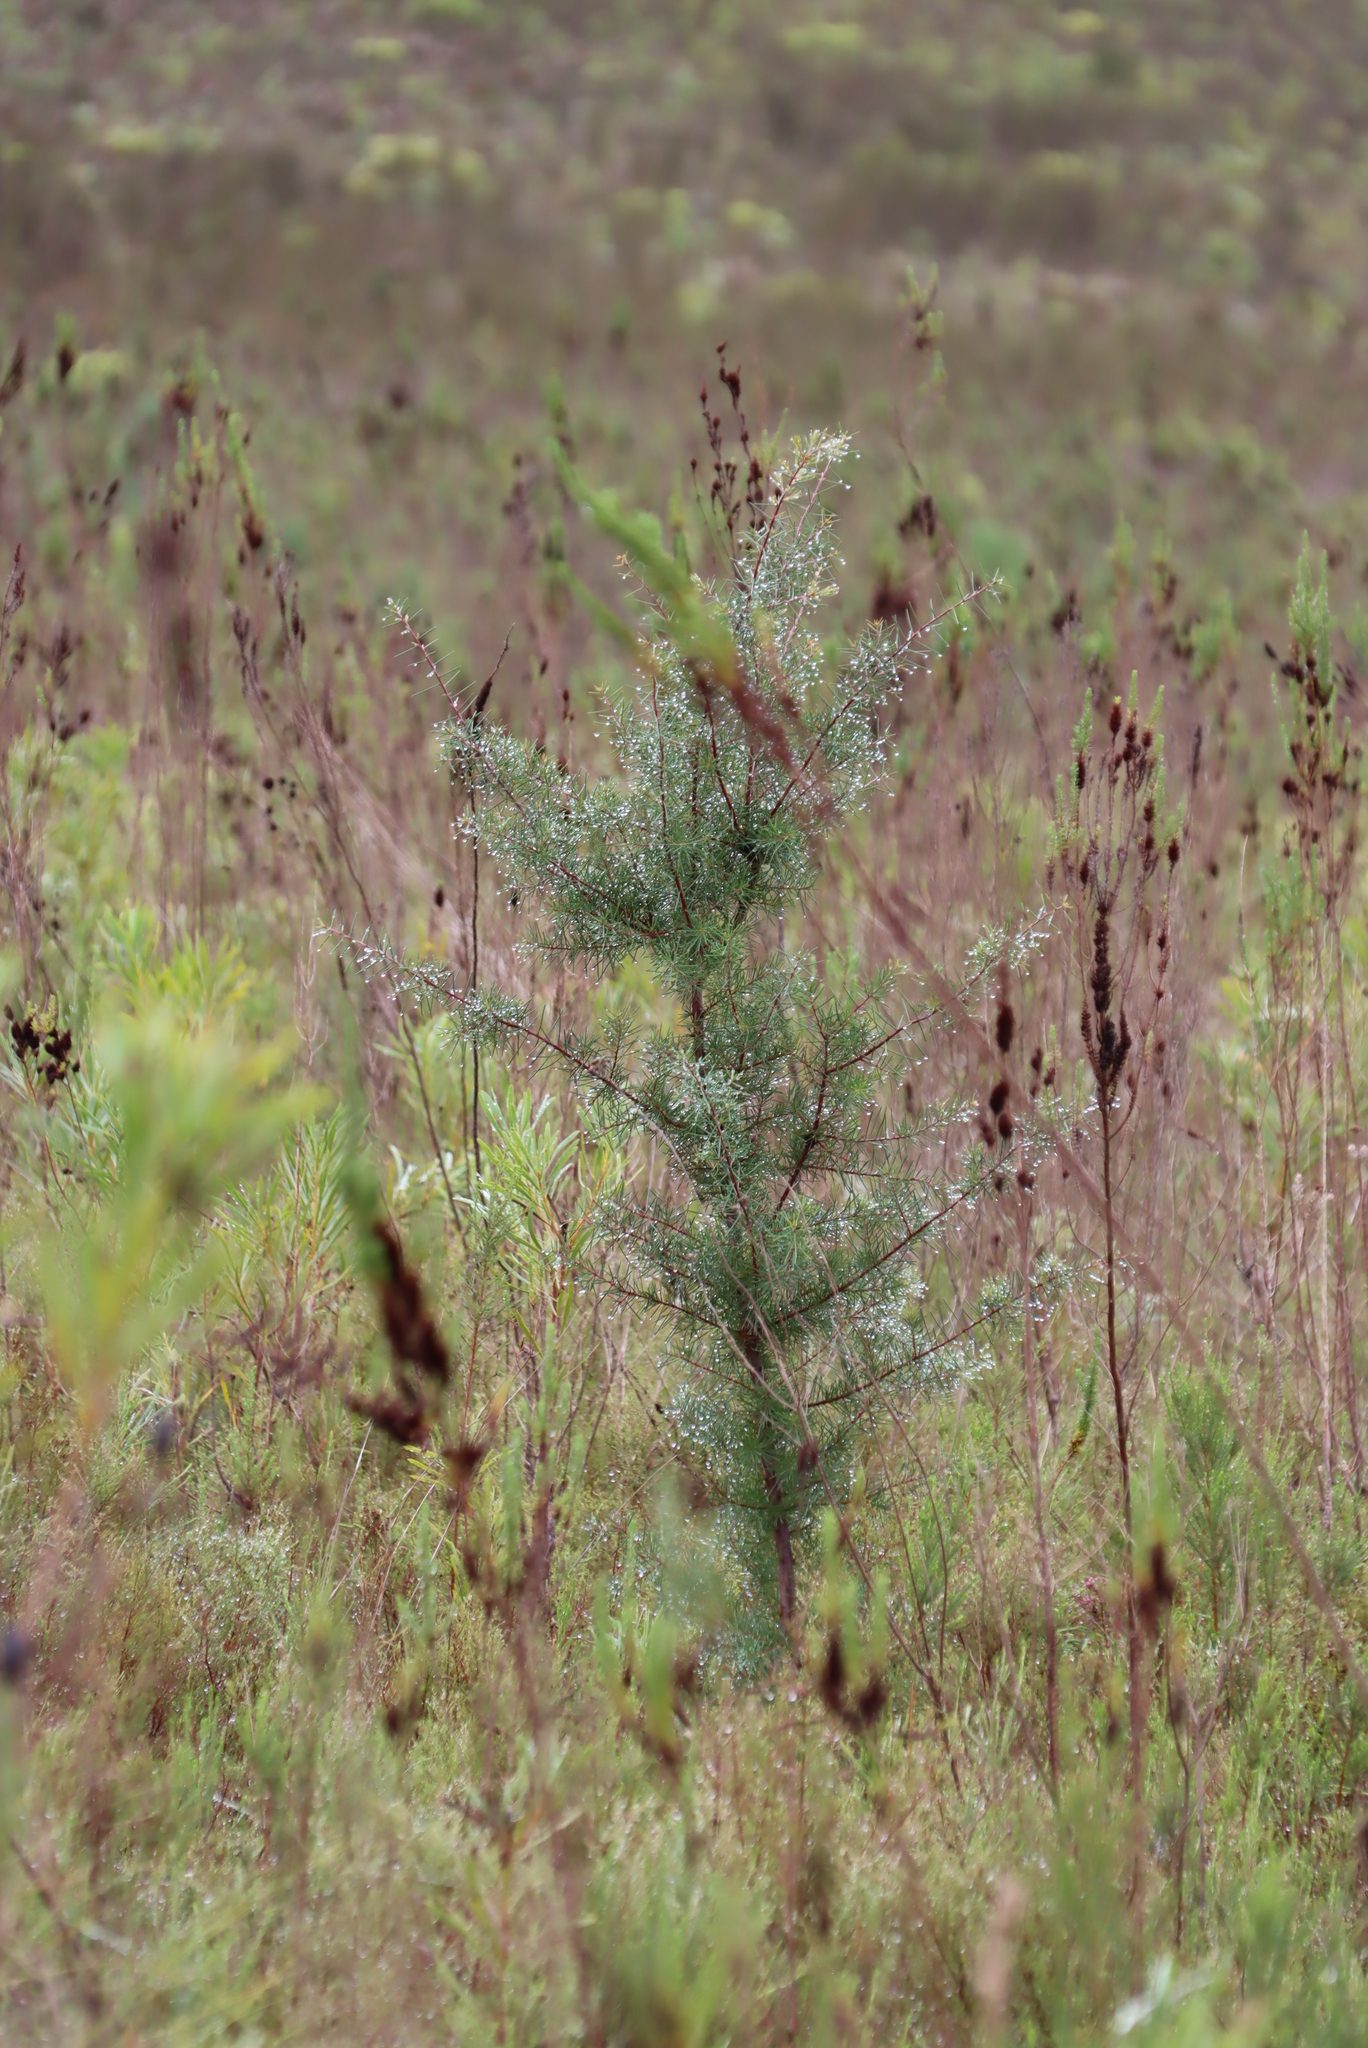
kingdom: Plantae
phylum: Tracheophyta
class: Magnoliopsida
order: Proteales
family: Proteaceae
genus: Hakea
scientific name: Hakea sericea
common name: Needle bush
